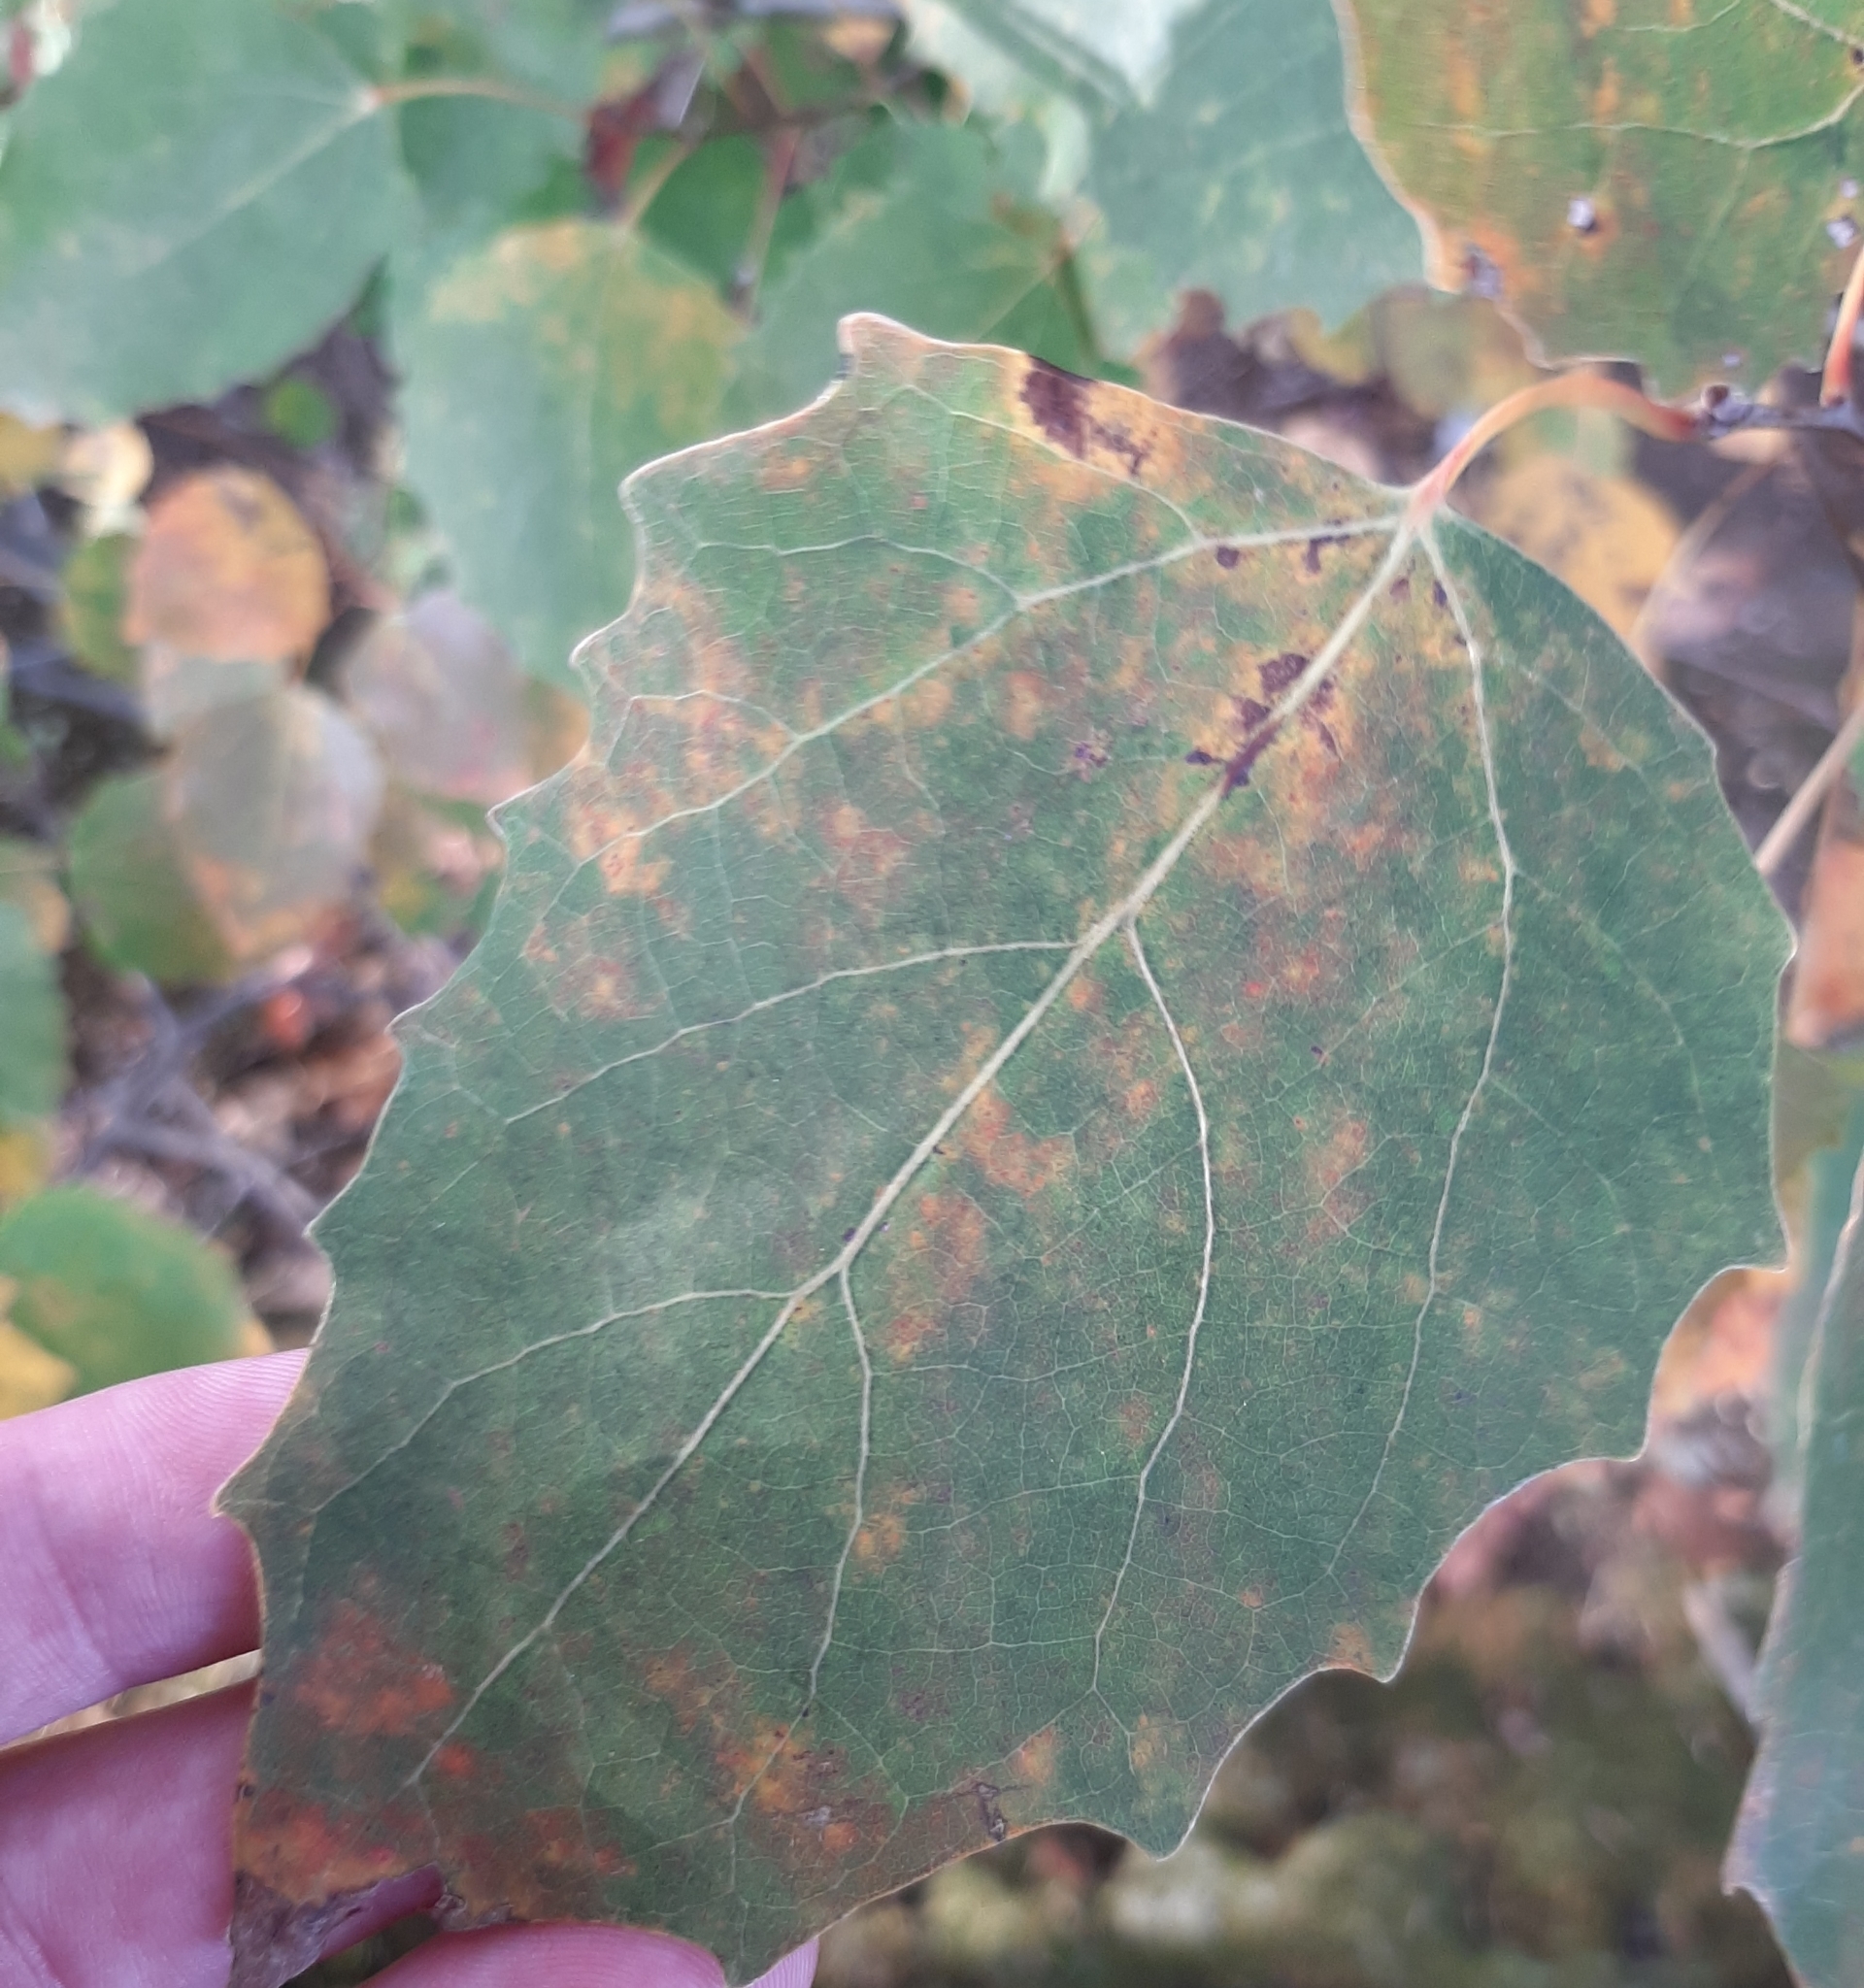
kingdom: Plantae
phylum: Tracheophyta
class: Magnoliopsida
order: Malpighiales
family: Salicaceae
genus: Populus
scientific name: Populus grandidentata
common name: Bigtooth aspen
